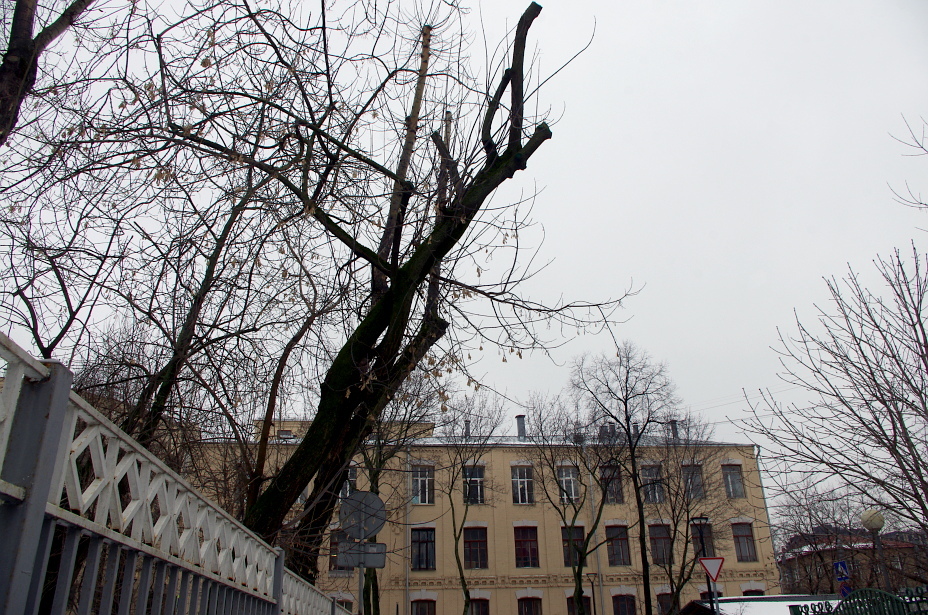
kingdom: Plantae
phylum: Tracheophyta
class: Magnoliopsida
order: Sapindales
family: Sapindaceae
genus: Acer
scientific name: Acer negundo
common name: Ashleaf maple
